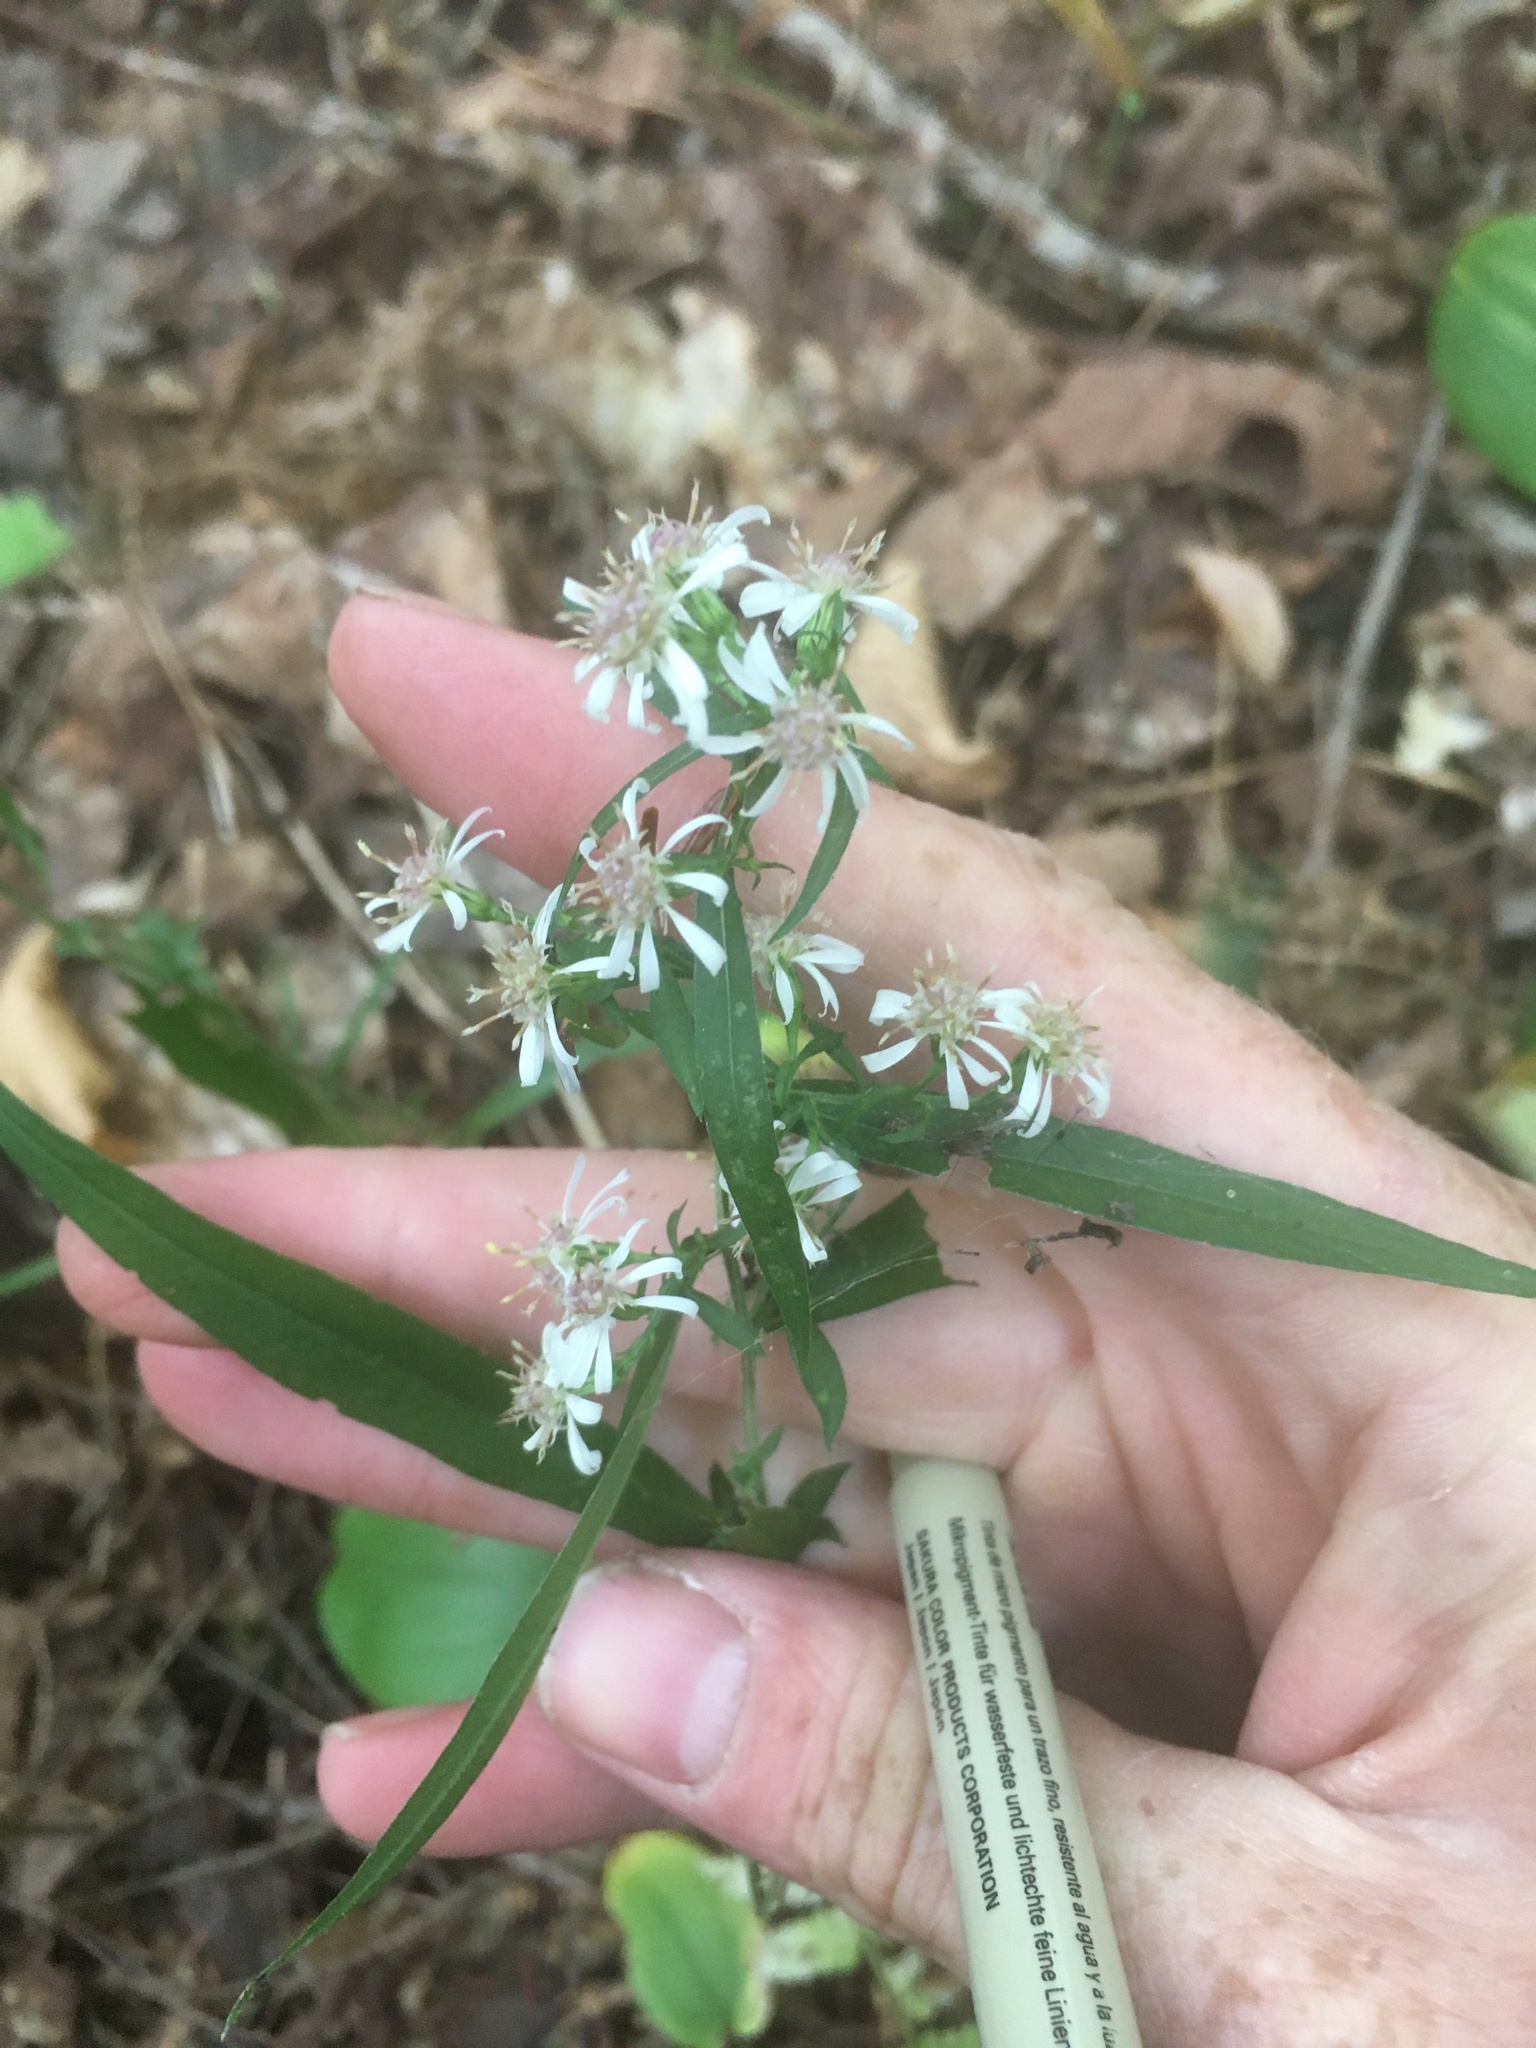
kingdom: Plantae
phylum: Tracheophyta
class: Magnoliopsida
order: Asterales
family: Asteraceae
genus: Symphyotrichum
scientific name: Symphyotrichum lateriflorum
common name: Calico aster
